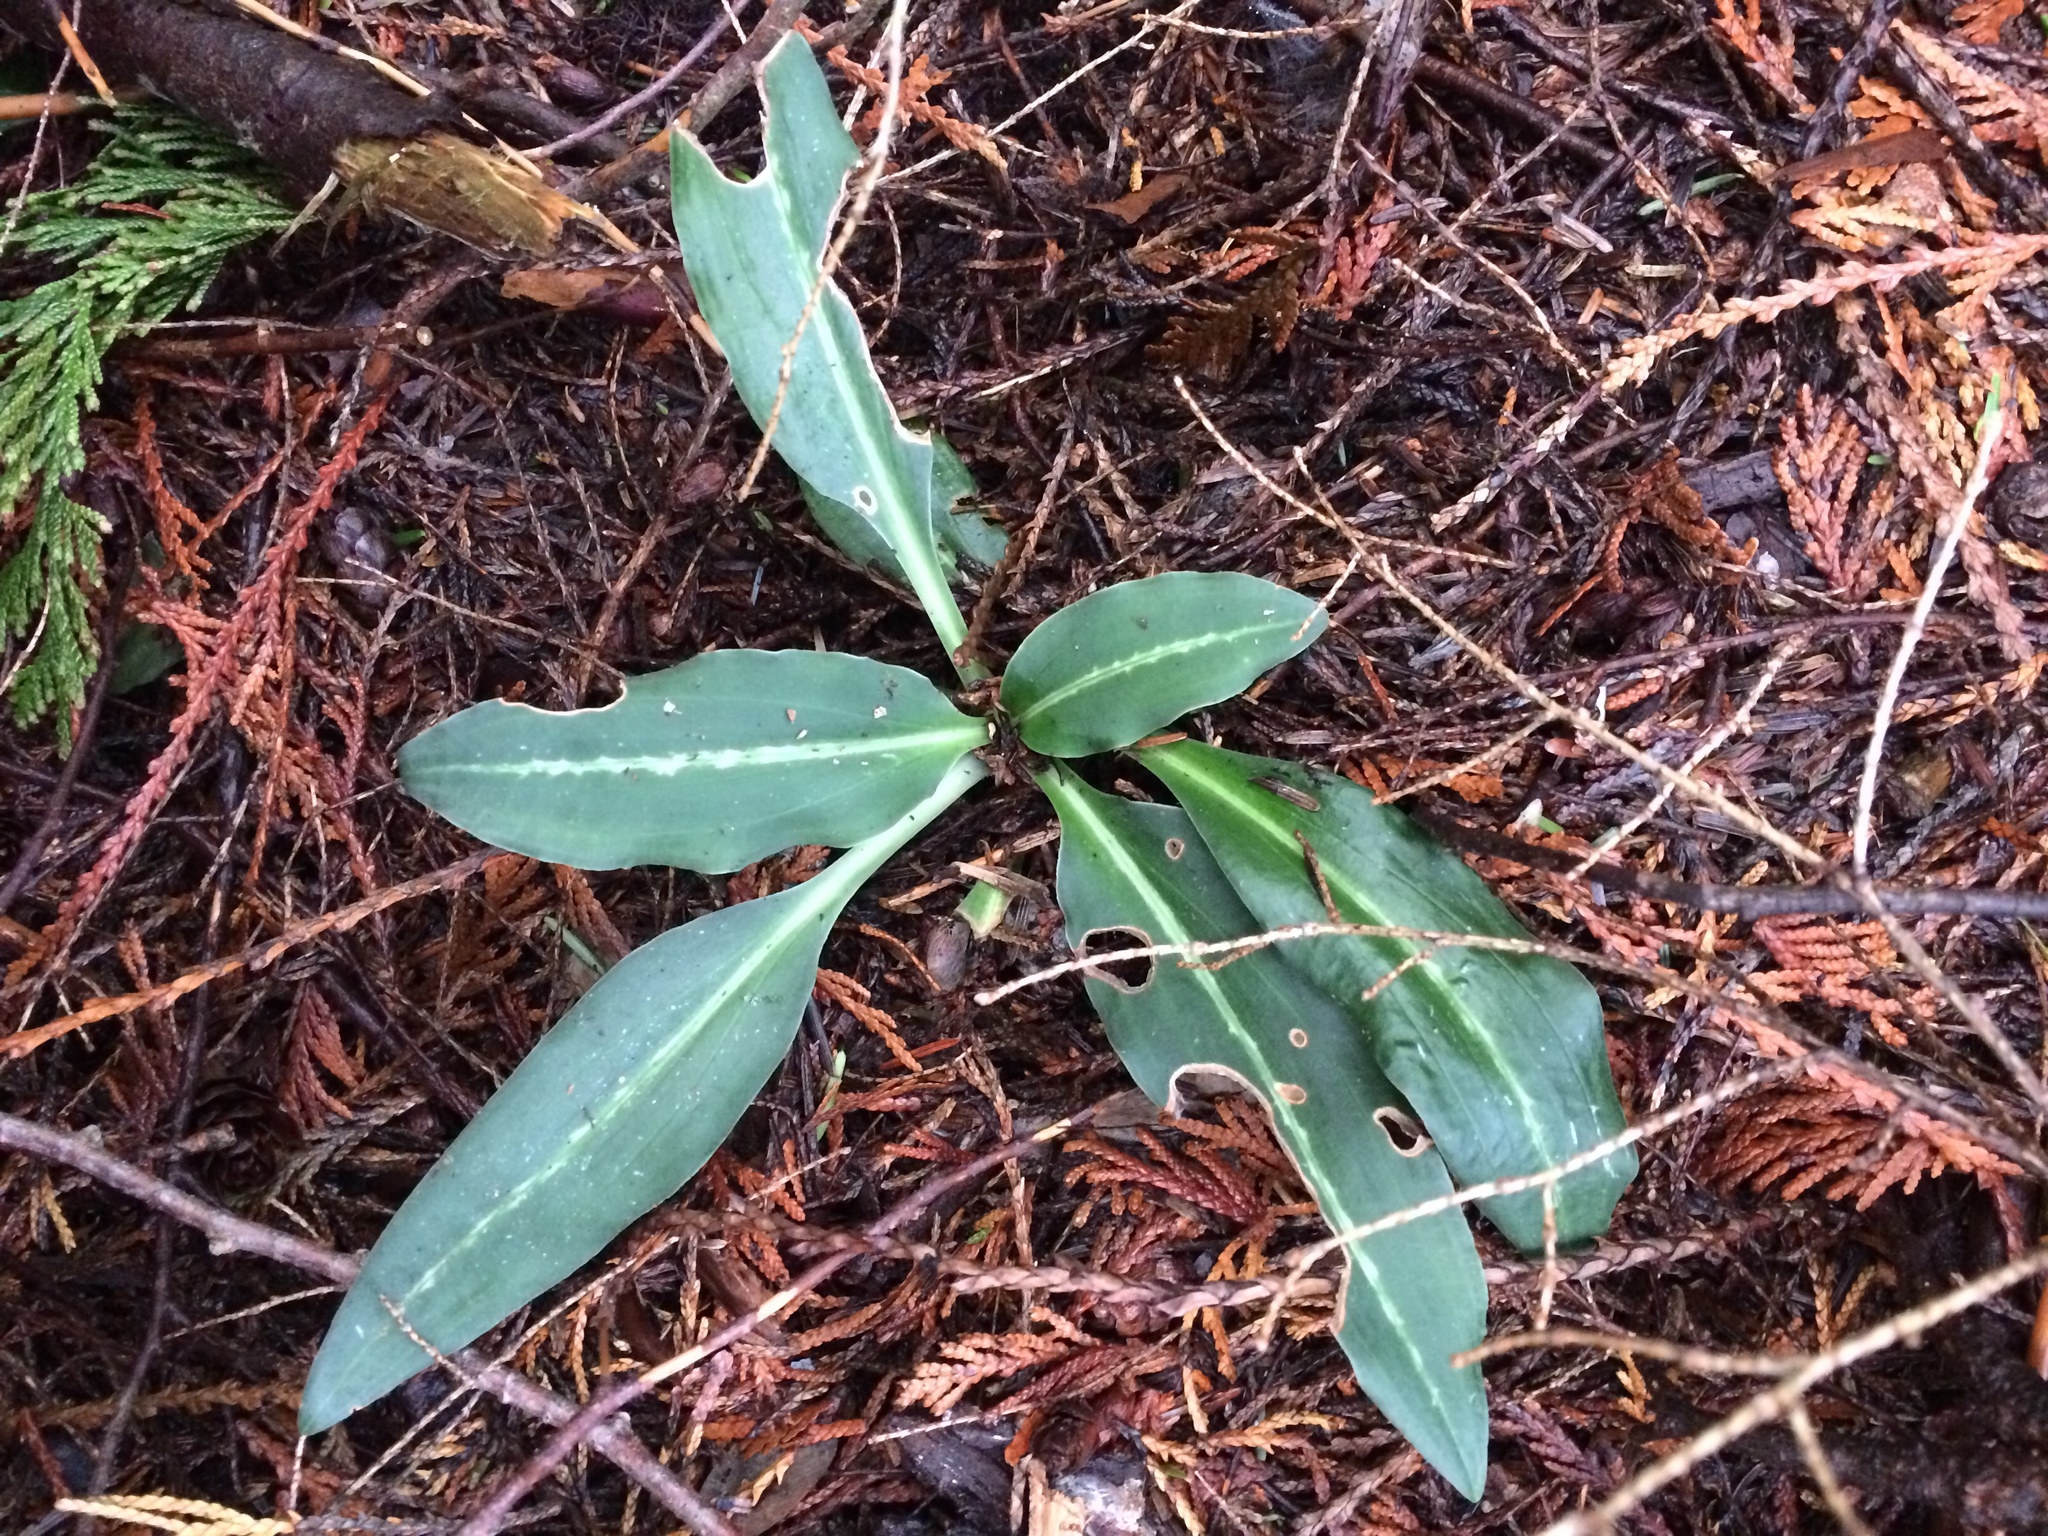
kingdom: Plantae
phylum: Tracheophyta
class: Liliopsida
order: Asparagales
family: Orchidaceae
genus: Goodyera
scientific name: Goodyera oblongifolia
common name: Giant rattlesnake-plantain
